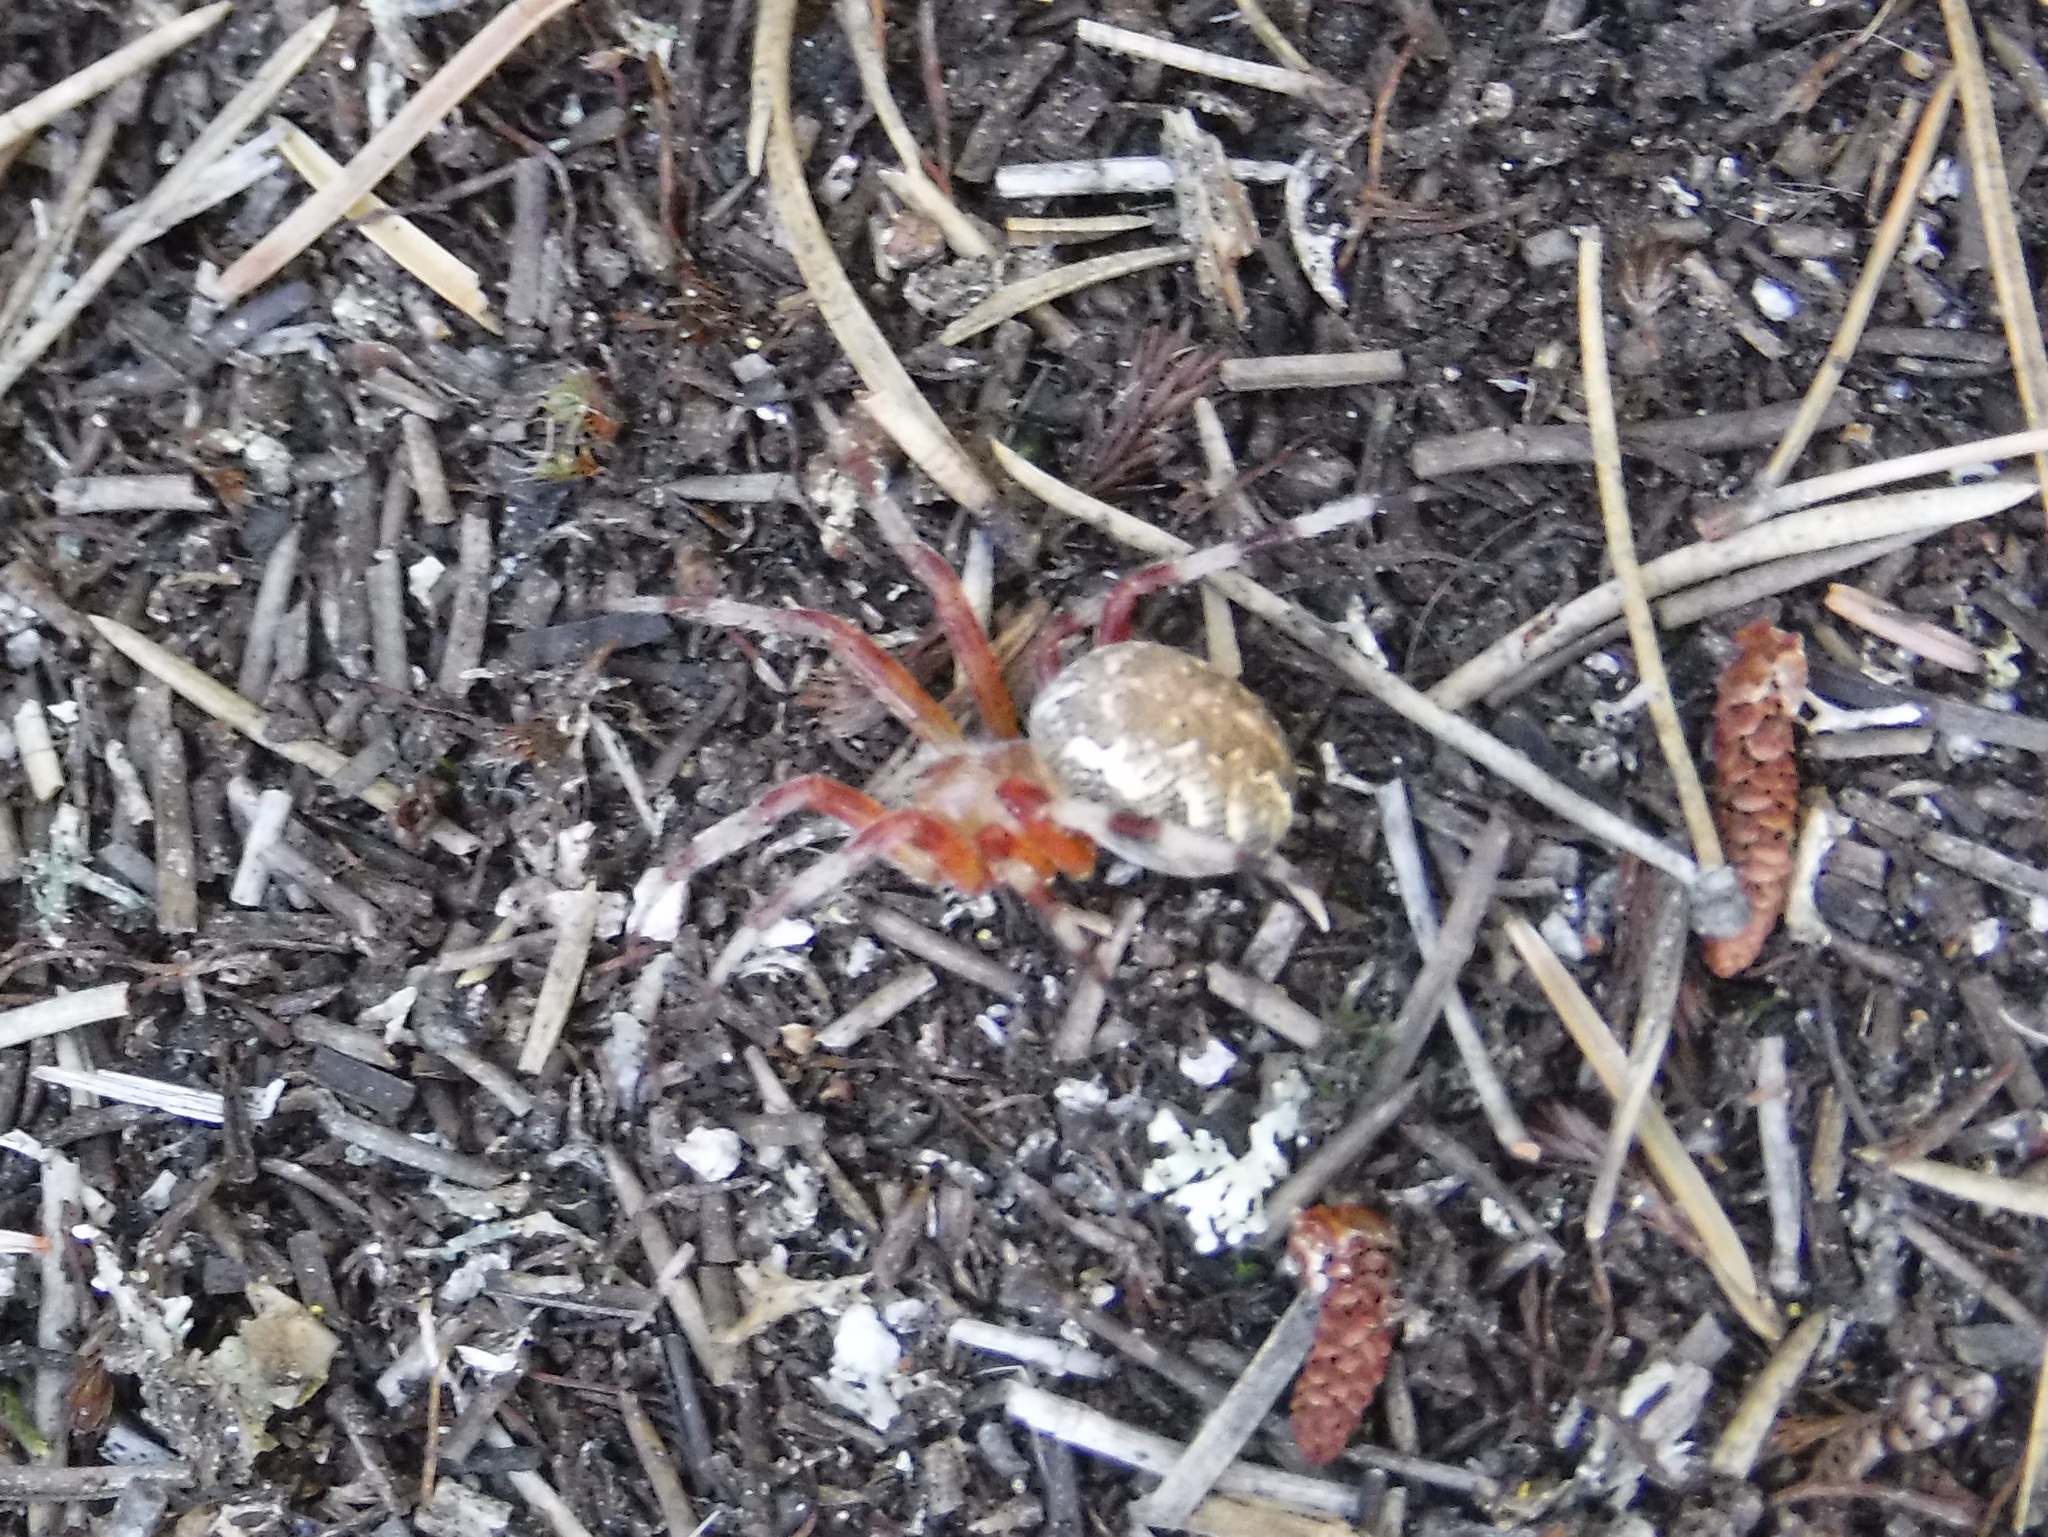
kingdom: Animalia
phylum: Arthropoda
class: Arachnida
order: Araneae
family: Araneidae
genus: Araneus
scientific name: Araneus marmoreus
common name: Marbled orbweaver
